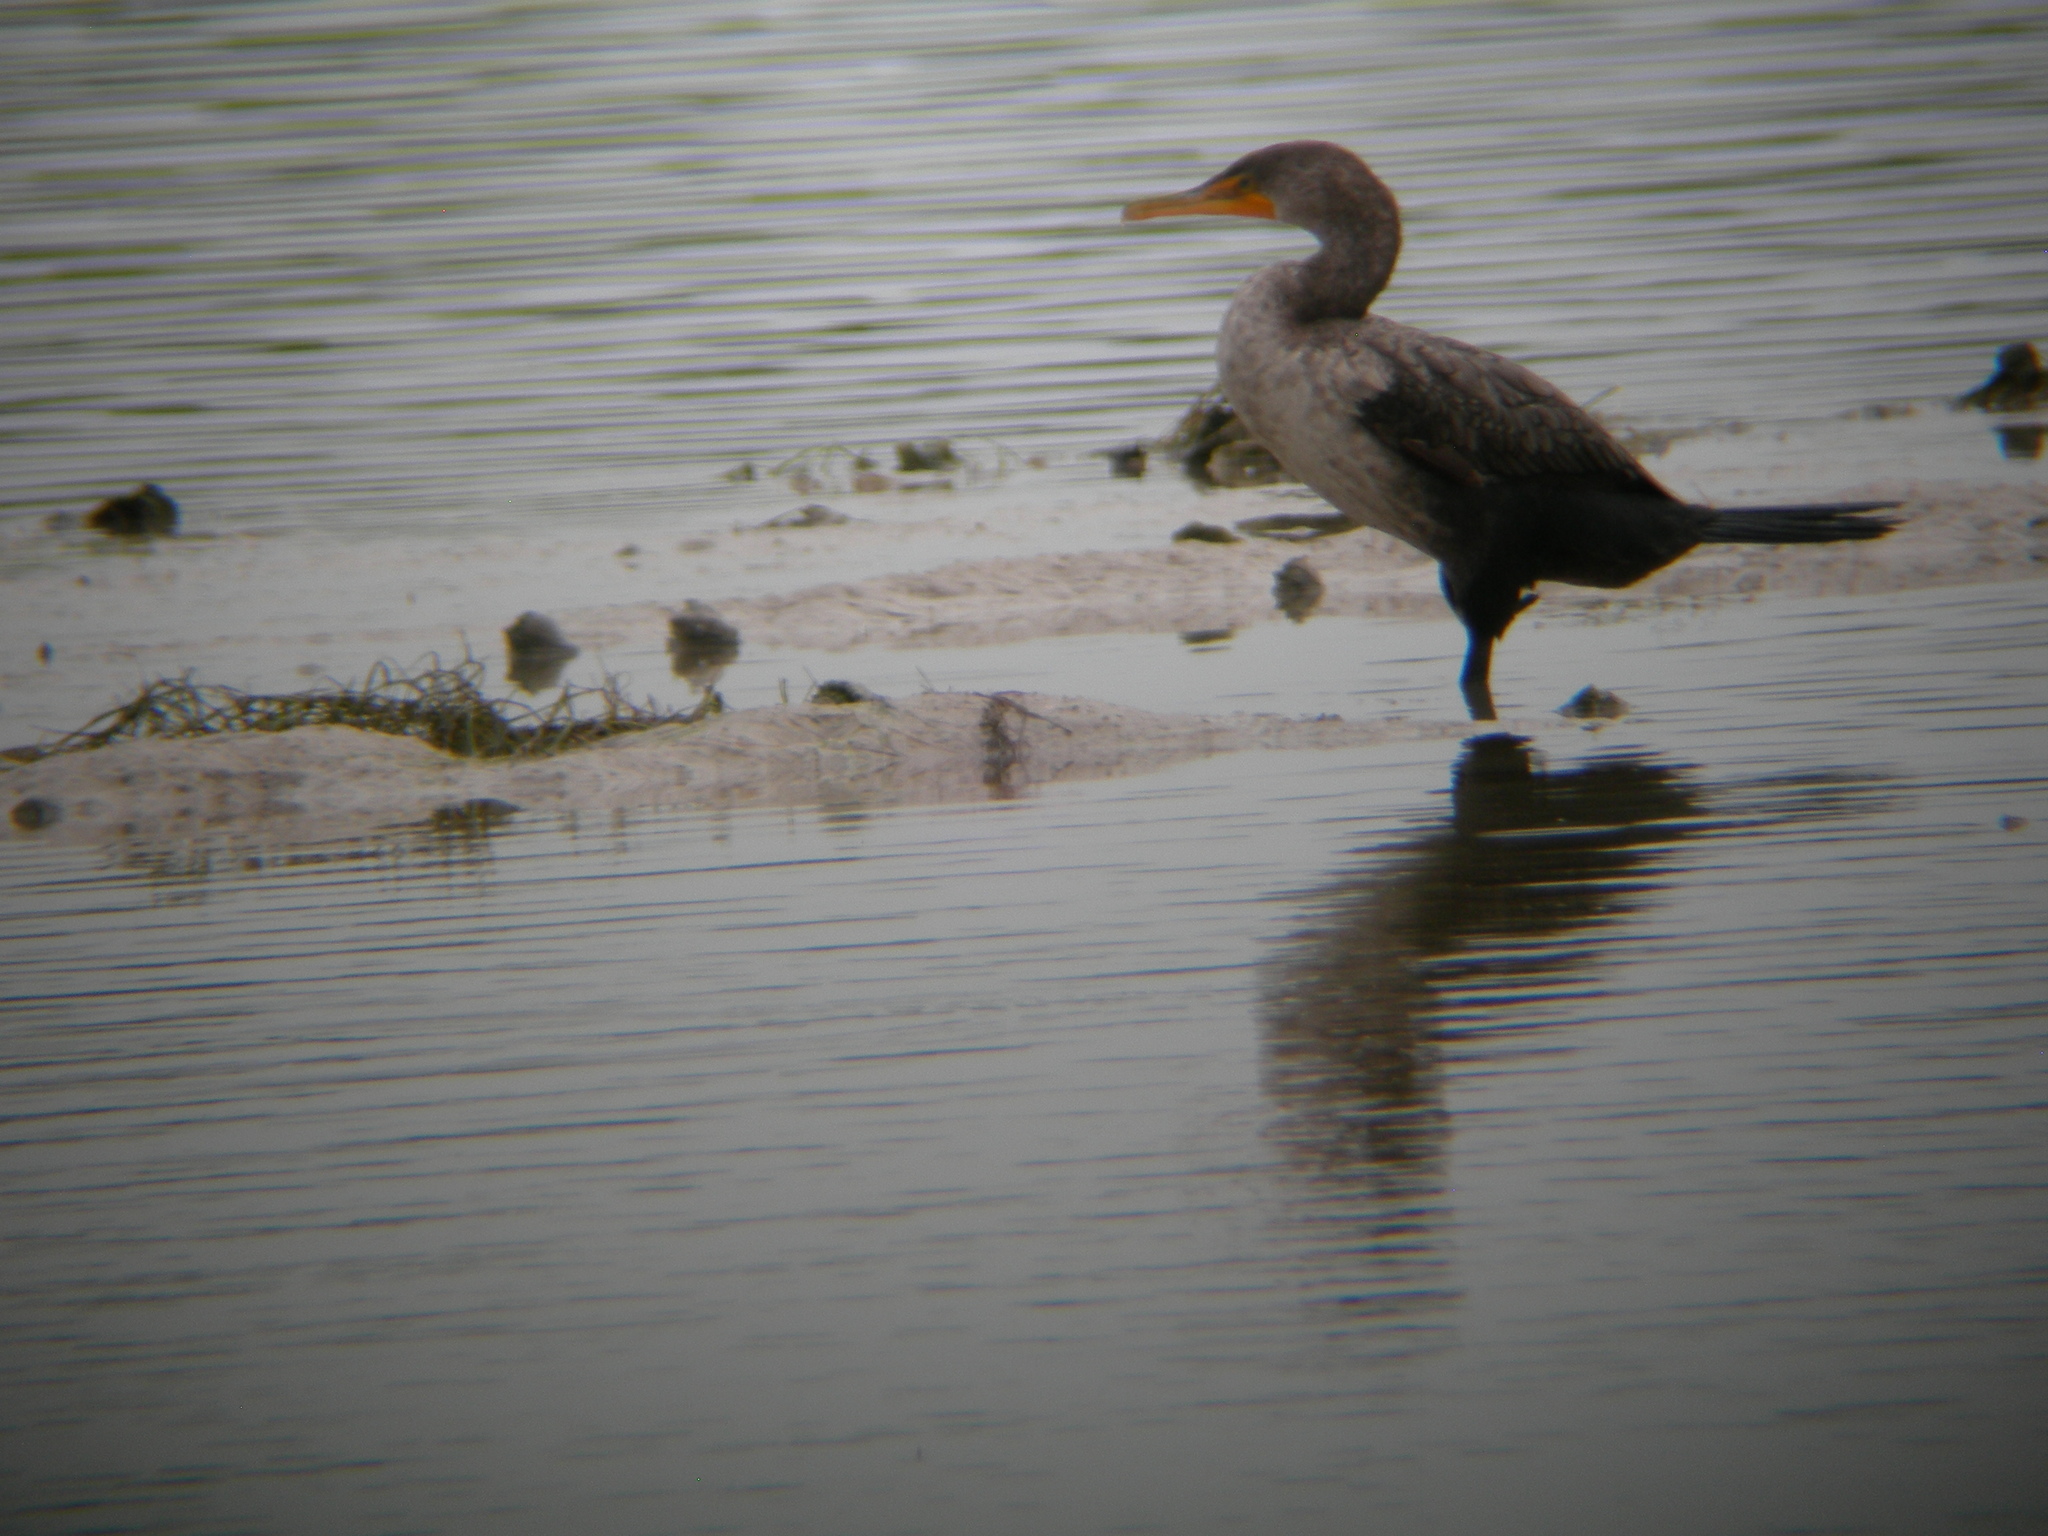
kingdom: Animalia
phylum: Chordata
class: Aves
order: Suliformes
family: Phalacrocoracidae
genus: Phalacrocorax
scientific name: Phalacrocorax auritus
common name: Double-crested cormorant
